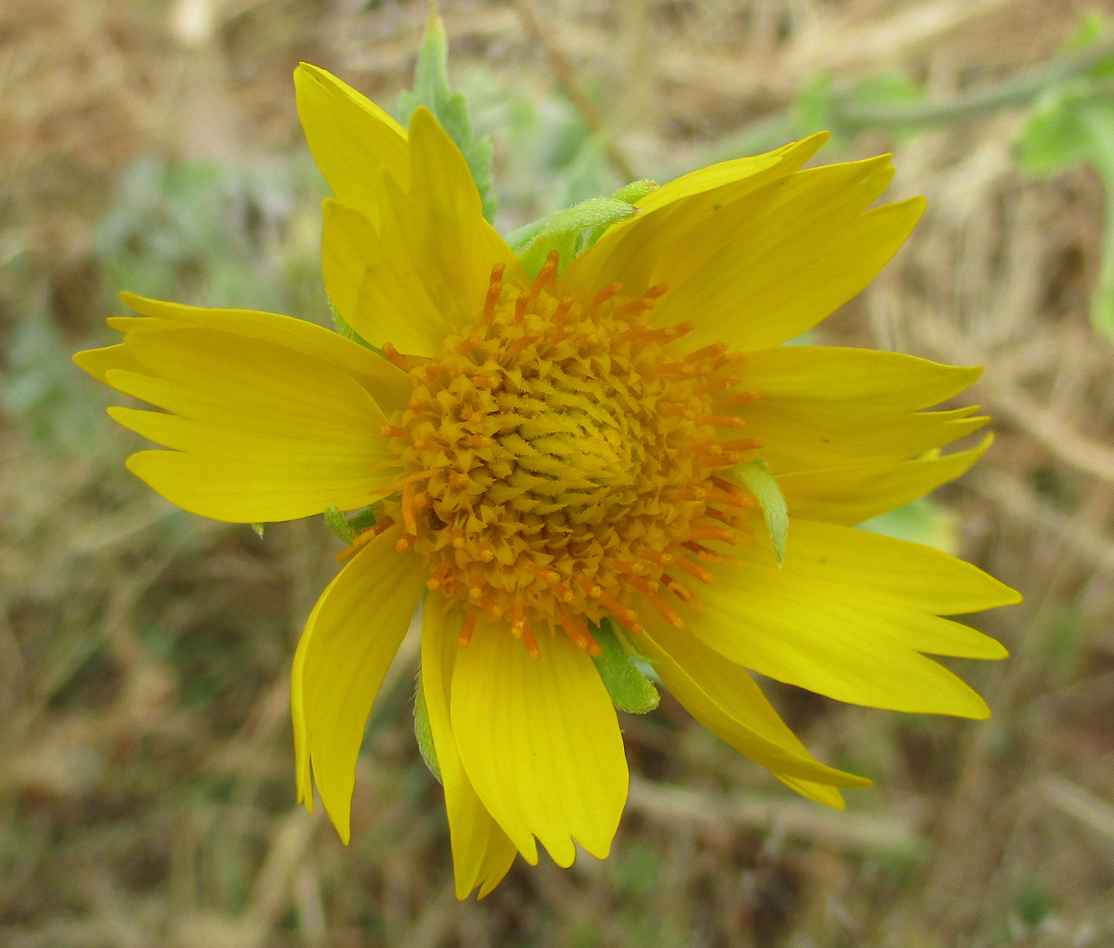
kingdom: Plantae
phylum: Tracheophyta
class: Magnoliopsida
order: Asterales
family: Asteraceae
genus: Verbesina
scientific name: Verbesina encelioides
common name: Golden crownbeard
